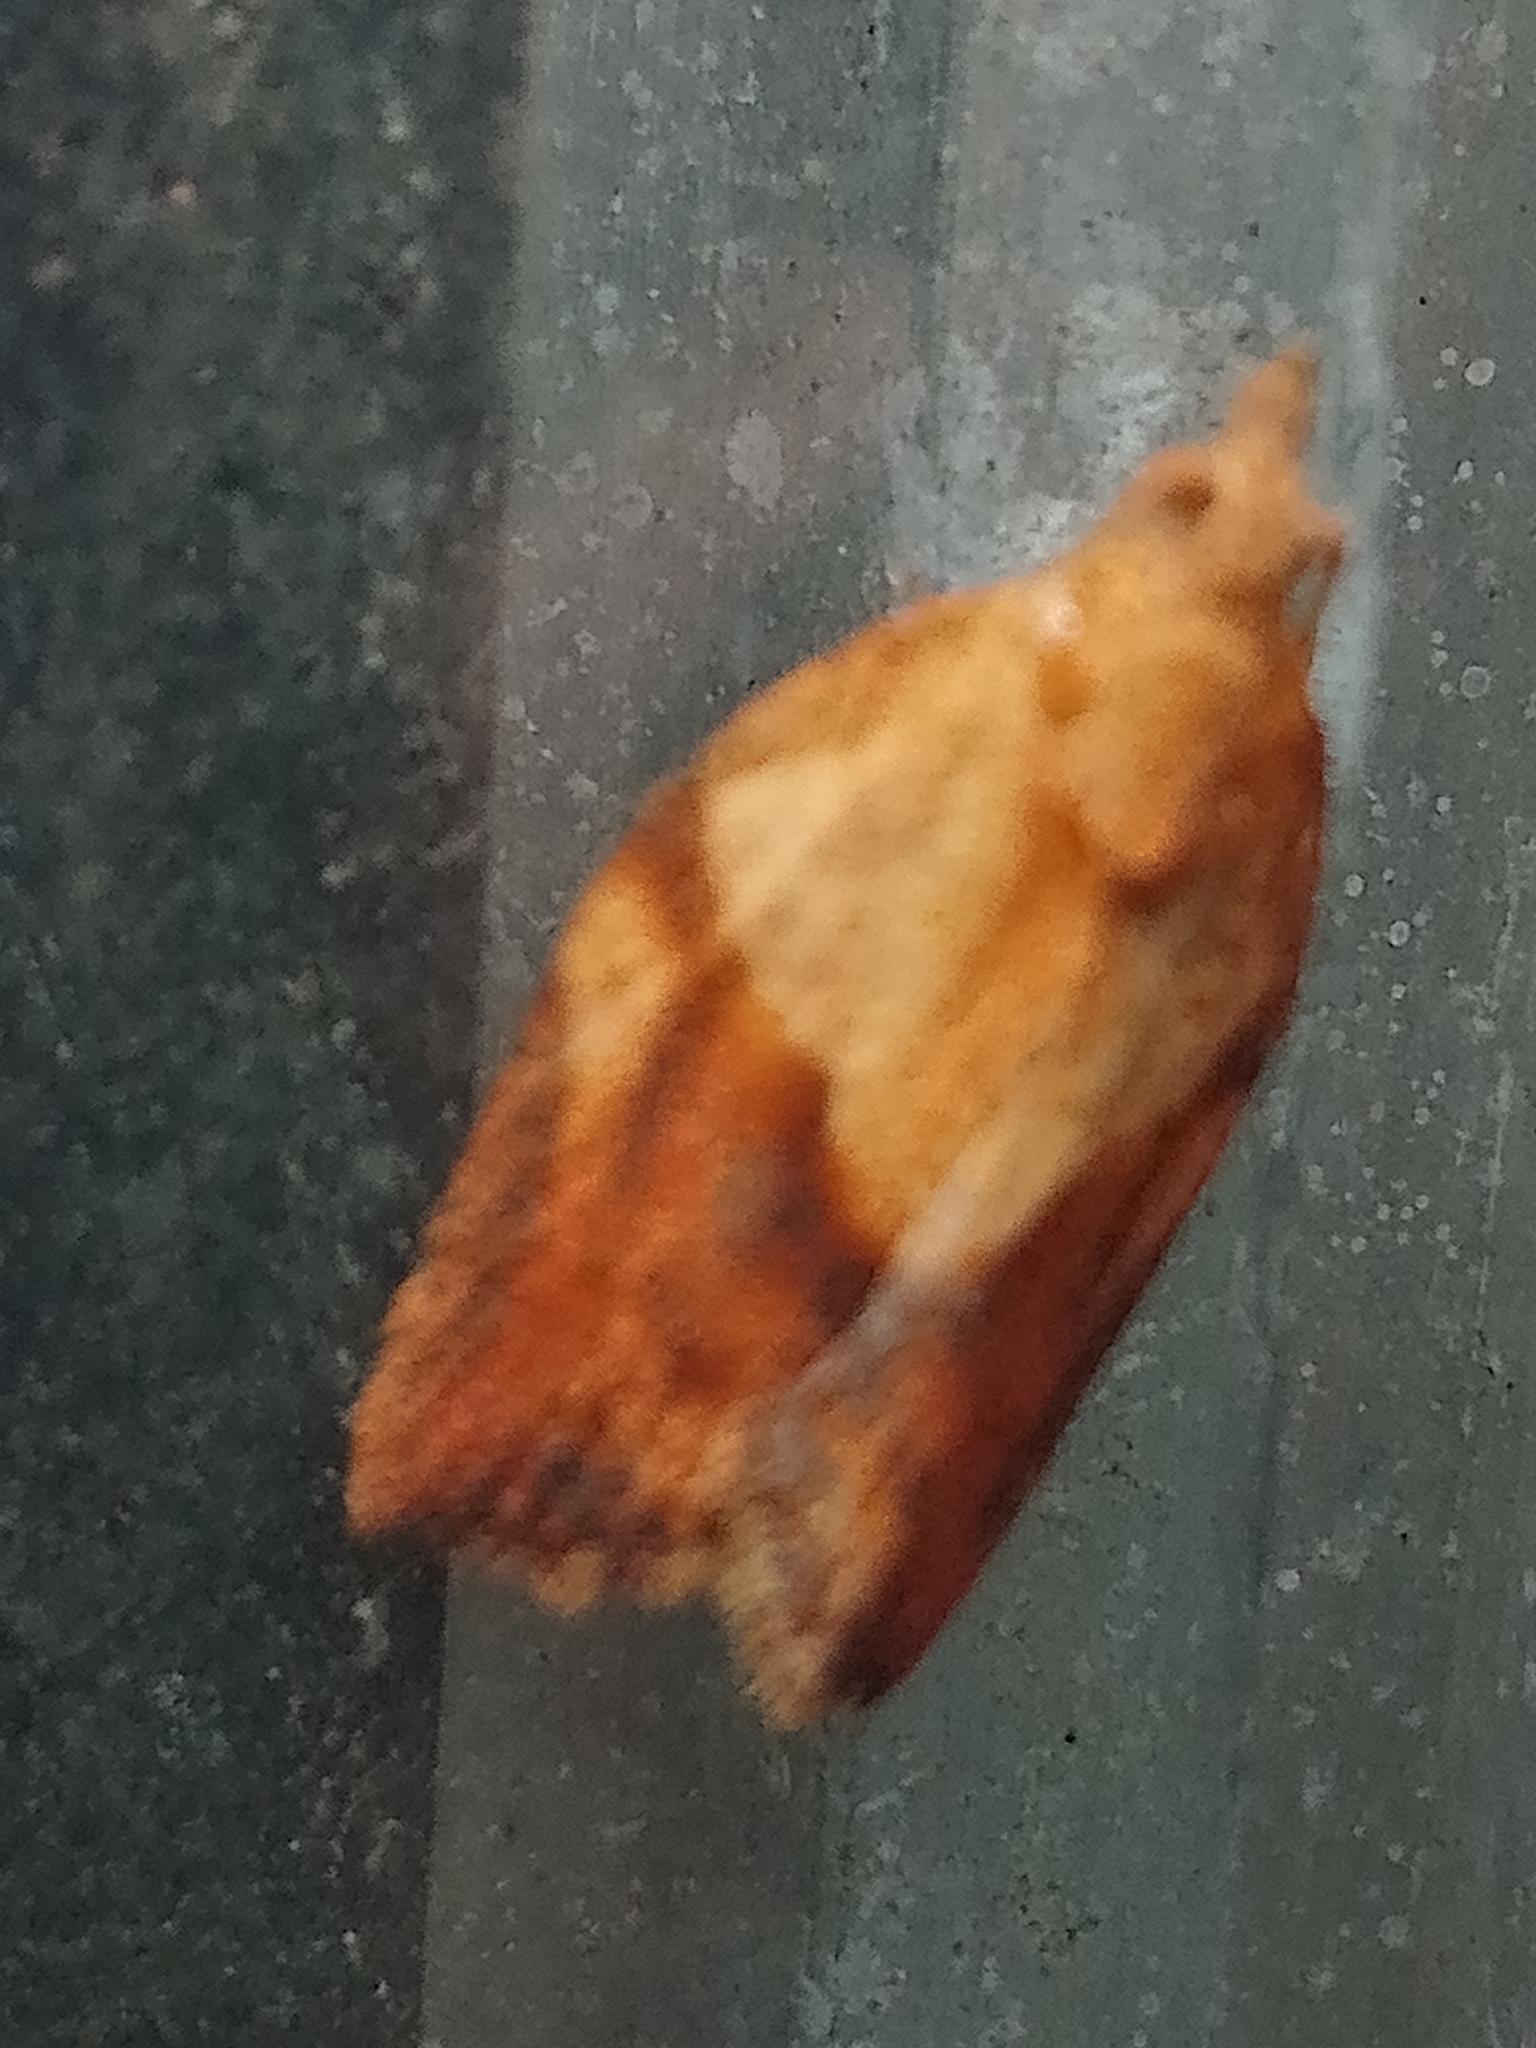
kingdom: Animalia
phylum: Arthropoda
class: Insecta
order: Lepidoptera
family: Tortricidae
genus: Epiphyas
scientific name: Epiphyas postvittana
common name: Light brown apple moth
